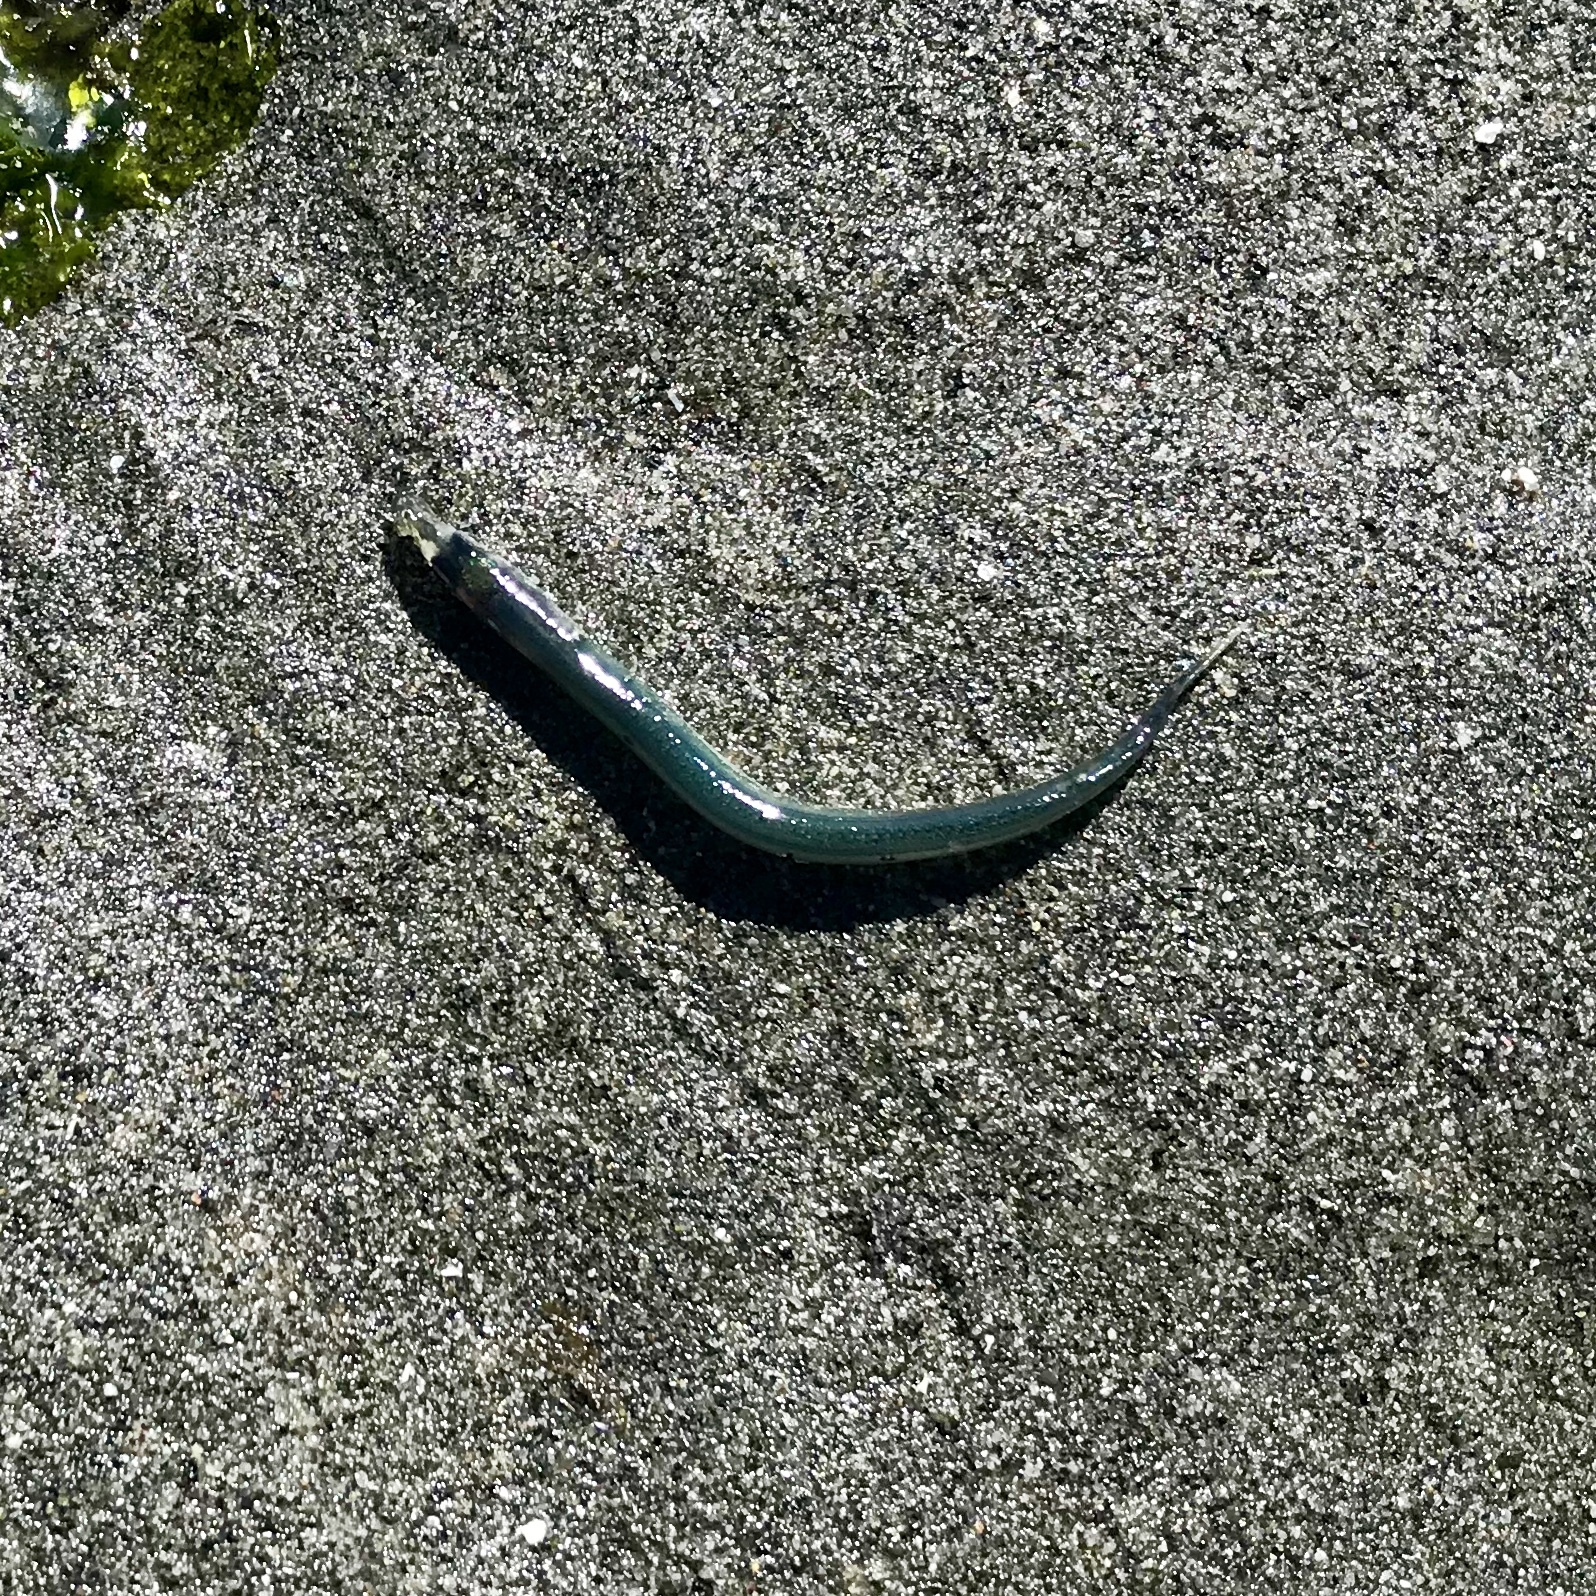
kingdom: Animalia
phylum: Chordata
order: Perciformes
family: Ammodytidae
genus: Ammodytes
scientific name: Ammodytes personatus
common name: Japanese sand lance
